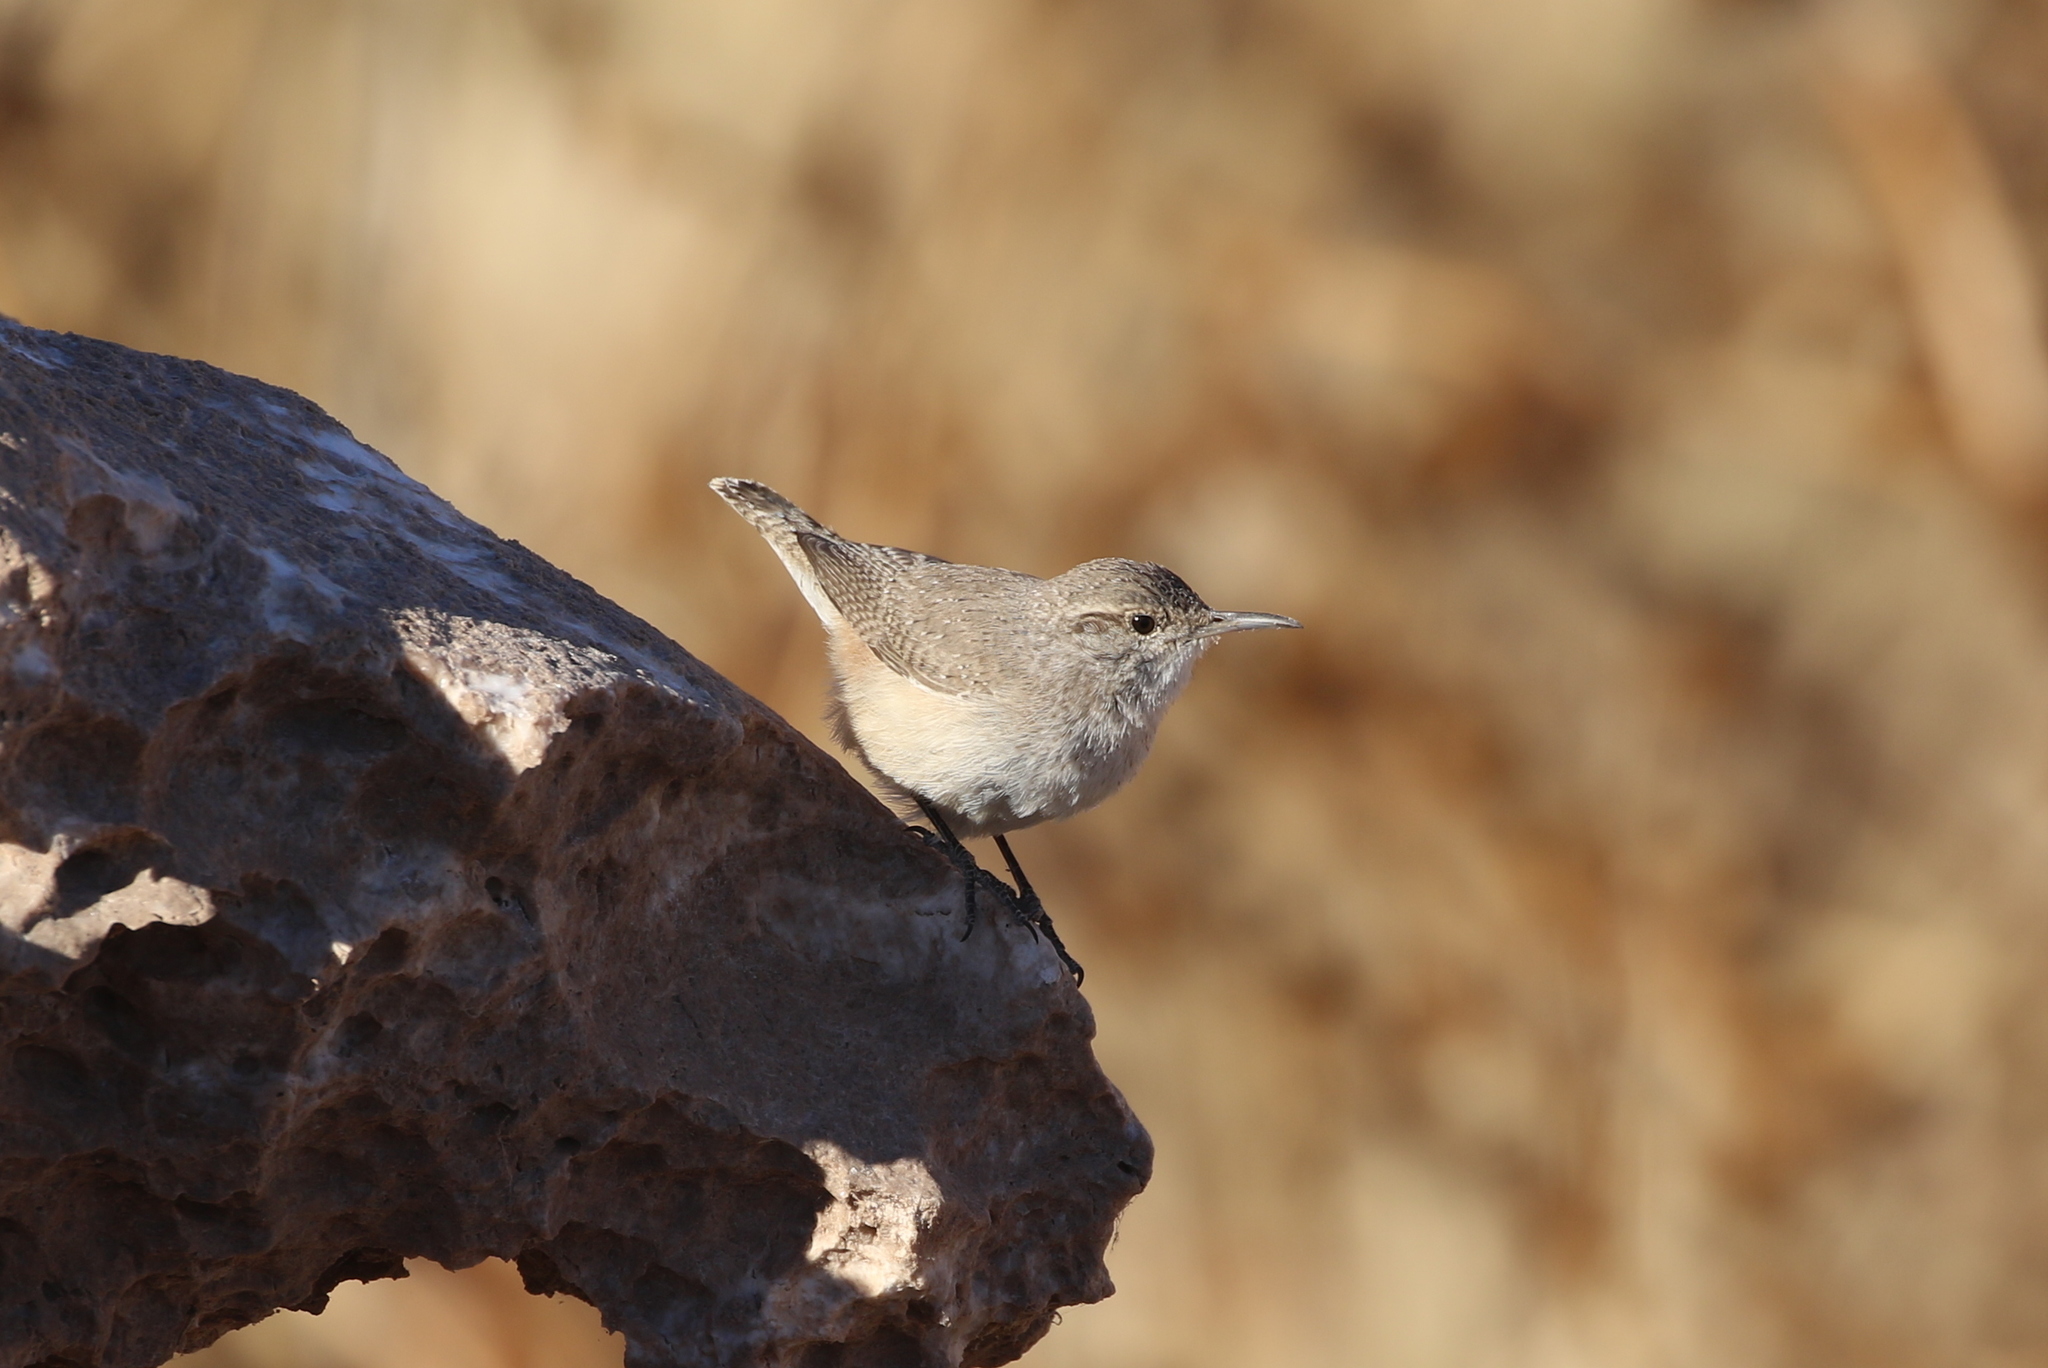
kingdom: Animalia
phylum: Chordata
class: Aves
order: Passeriformes
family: Troglodytidae
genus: Salpinctes
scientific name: Salpinctes obsoletus
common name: Rock wren
